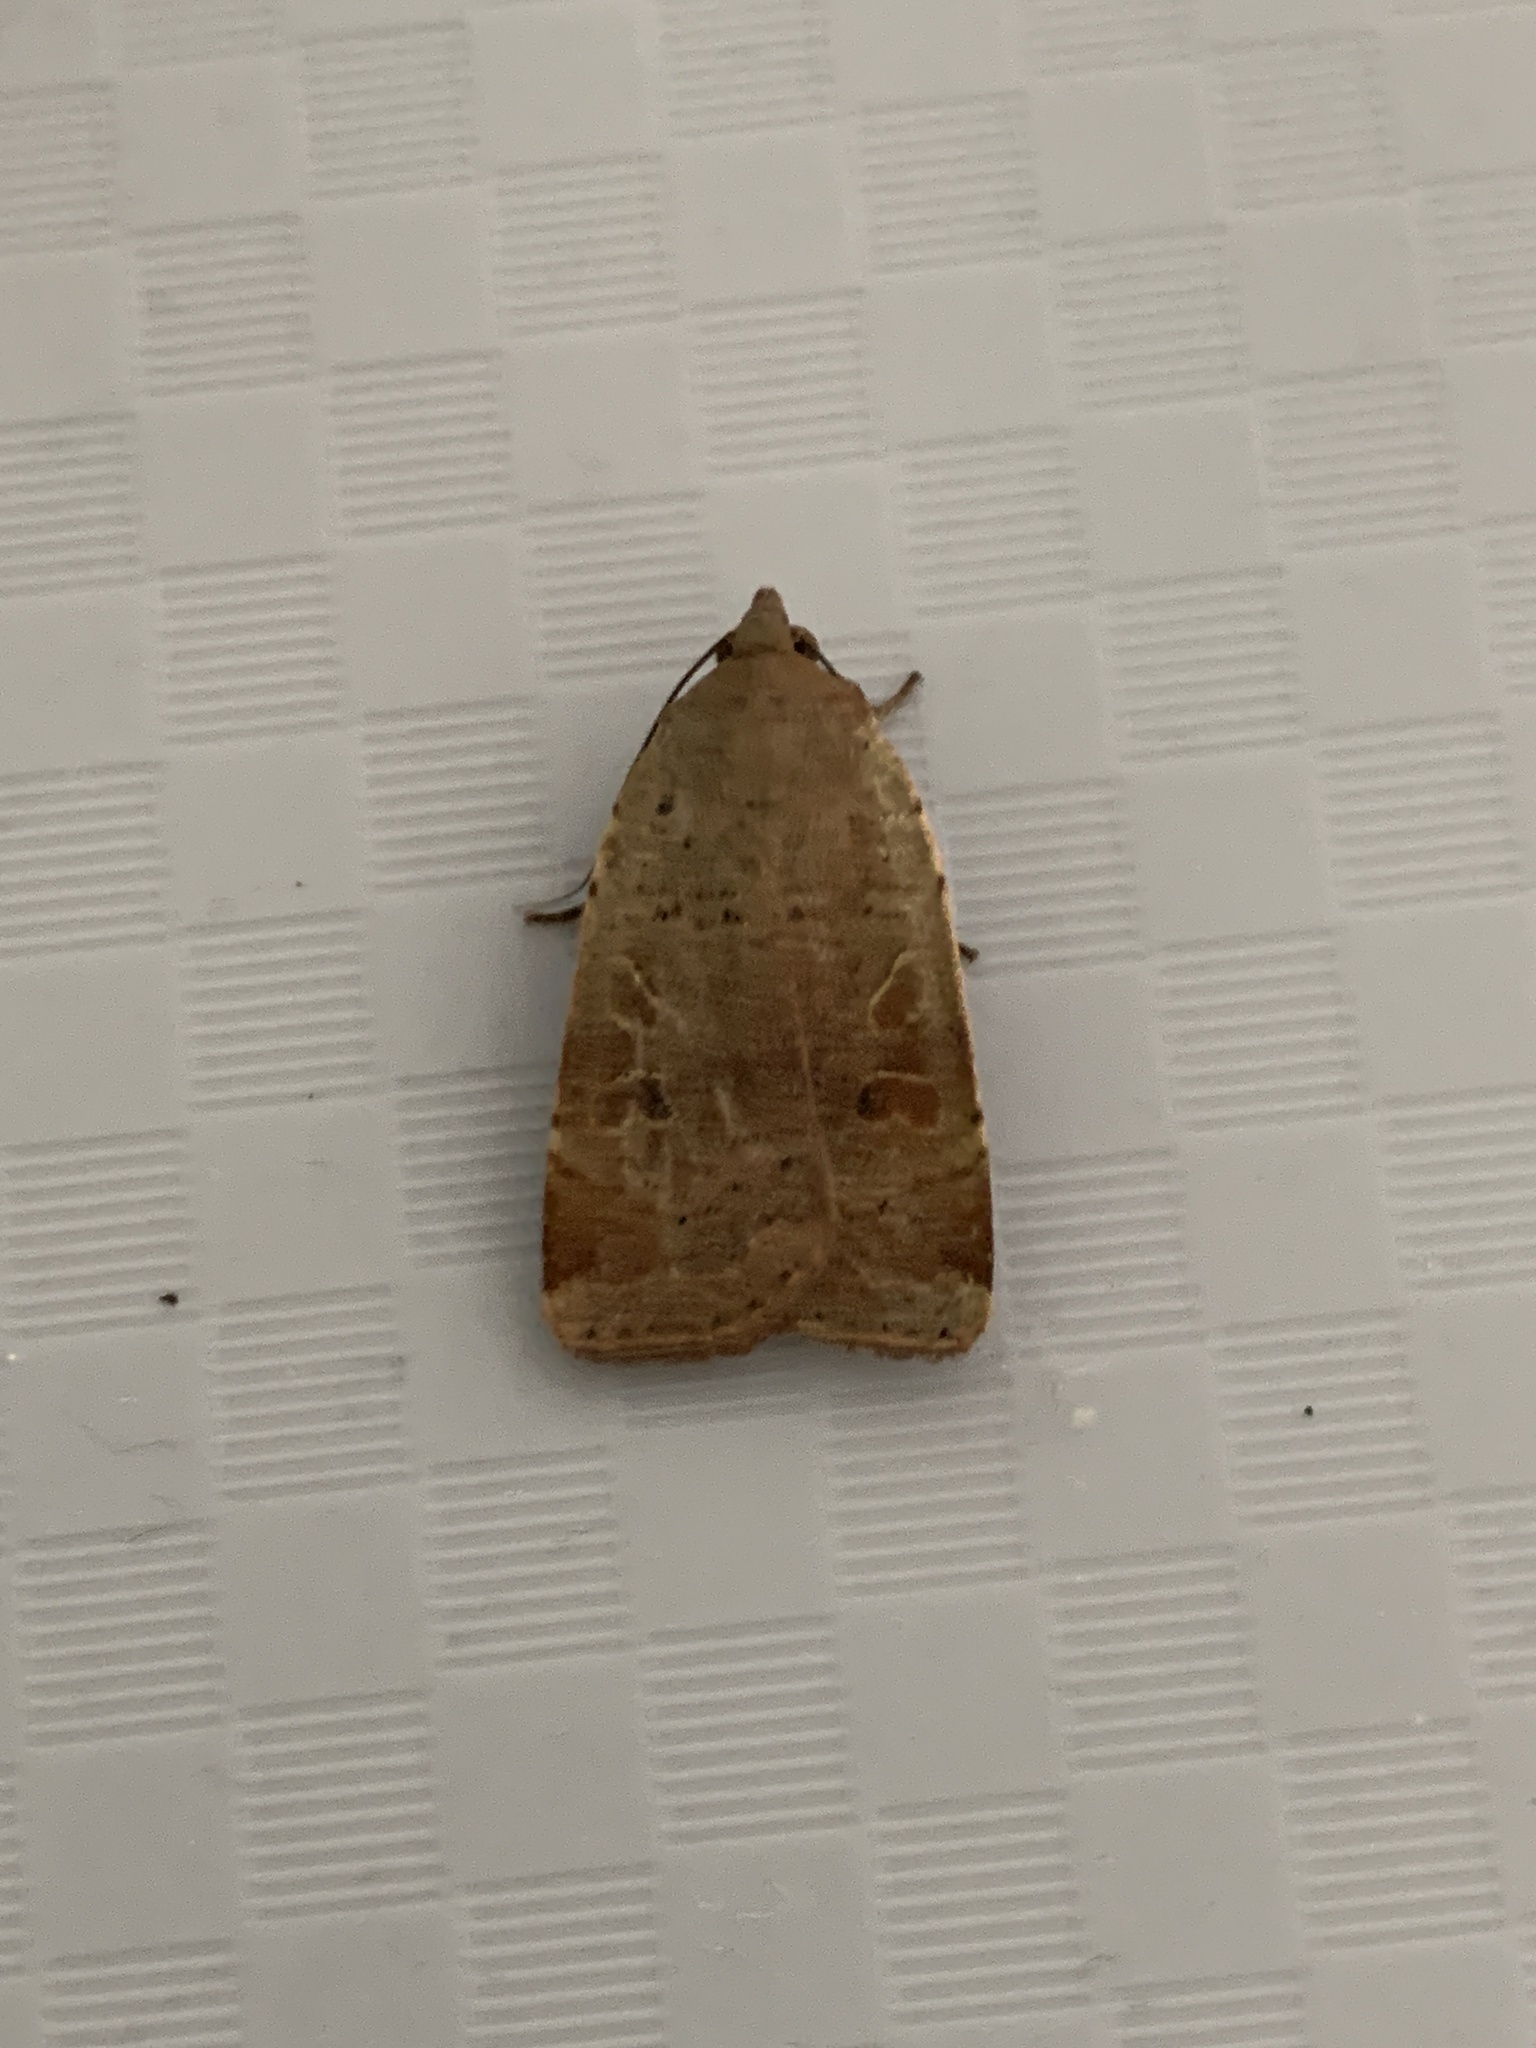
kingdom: Animalia
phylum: Arthropoda
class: Insecta
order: Lepidoptera
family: Noctuidae
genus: Noctua
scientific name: Noctua comes
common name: Lesser yellow underwing
